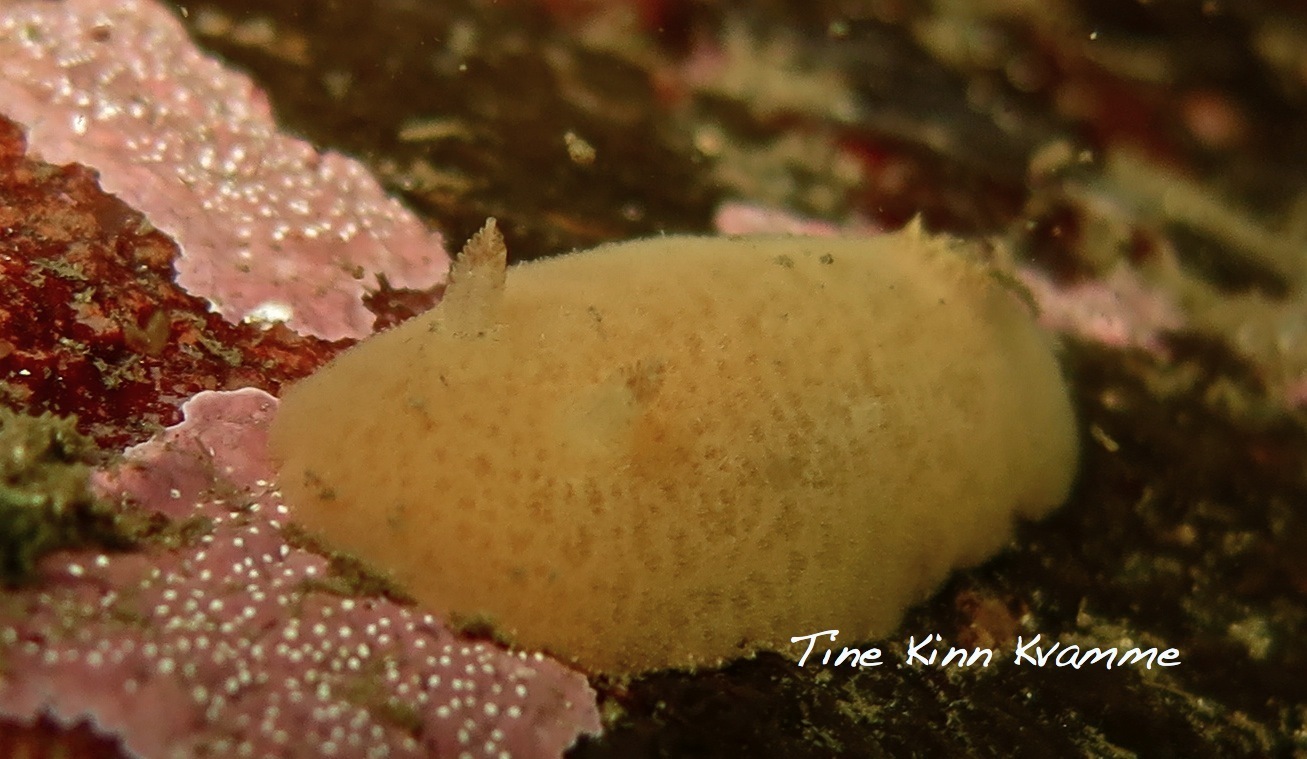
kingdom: Animalia
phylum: Mollusca
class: Gastropoda
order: Nudibranchia
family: Discodorididae
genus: Jorunna
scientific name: Jorunna tomentosa
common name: Grey sea slug
